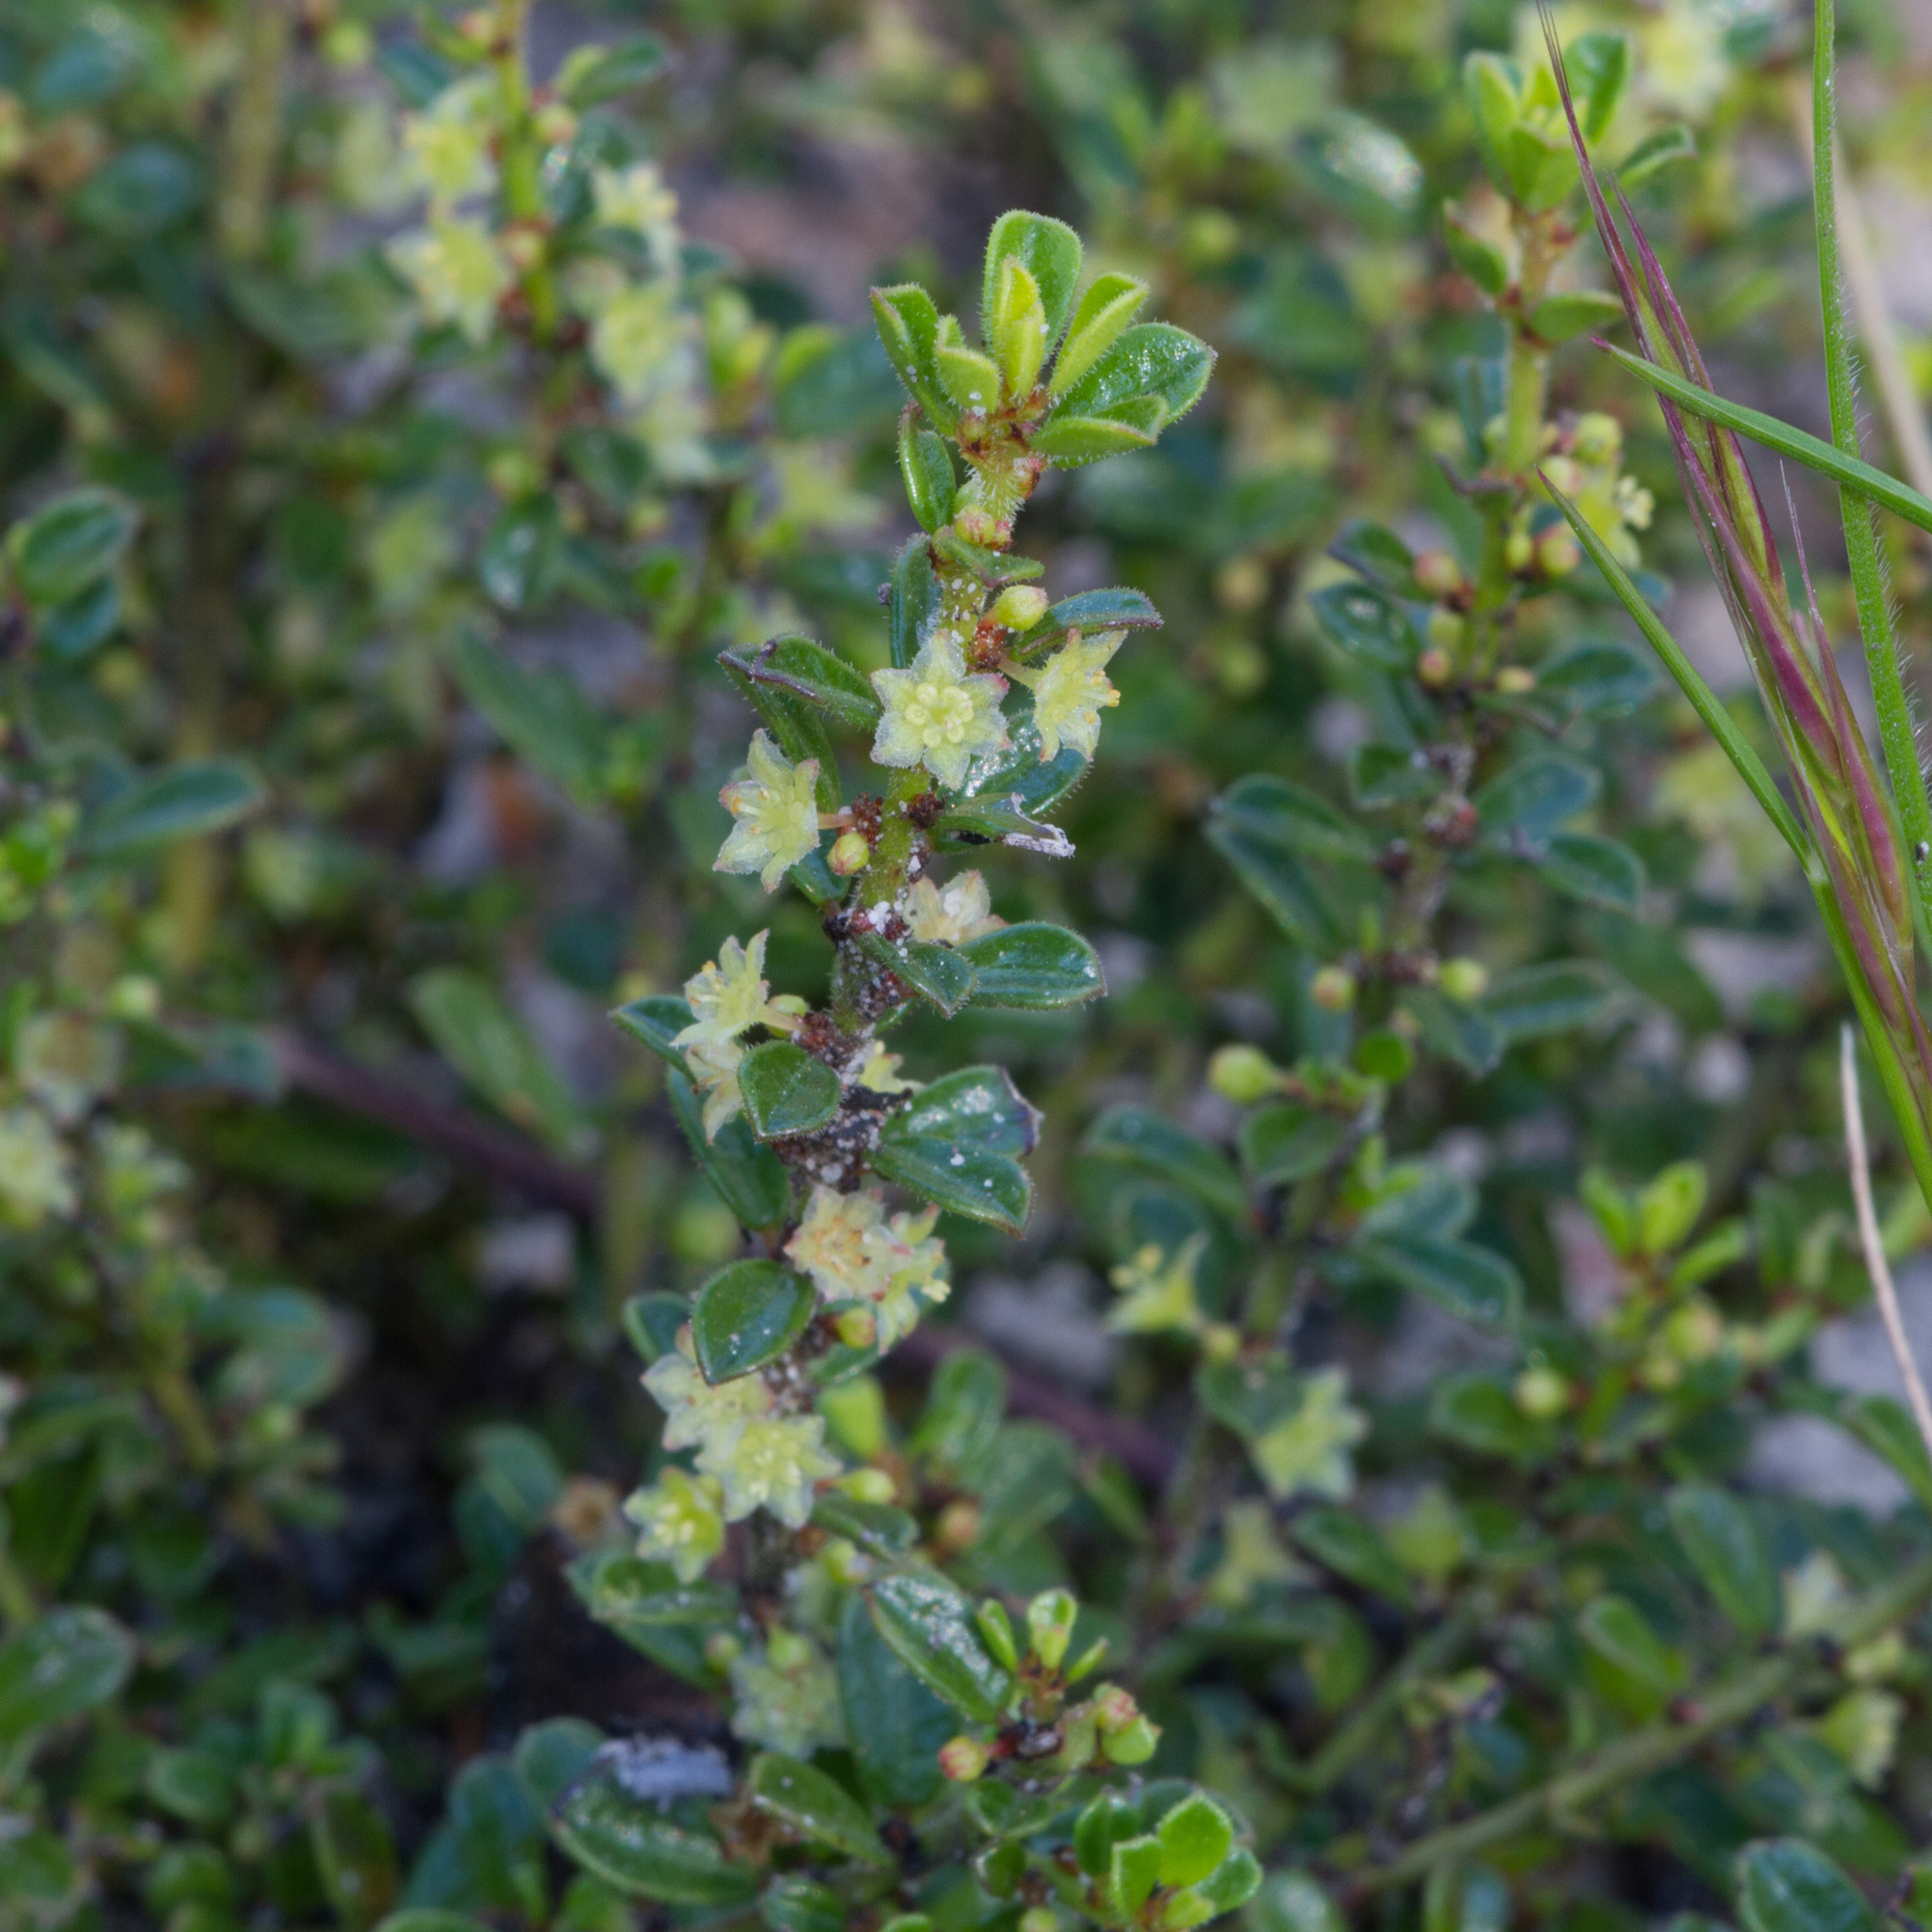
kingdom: Plantae
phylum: Tracheophyta
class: Magnoliopsida
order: Malpighiales
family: Phyllanthaceae
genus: Phyllanthus
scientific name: Phyllanthus hirtellus
